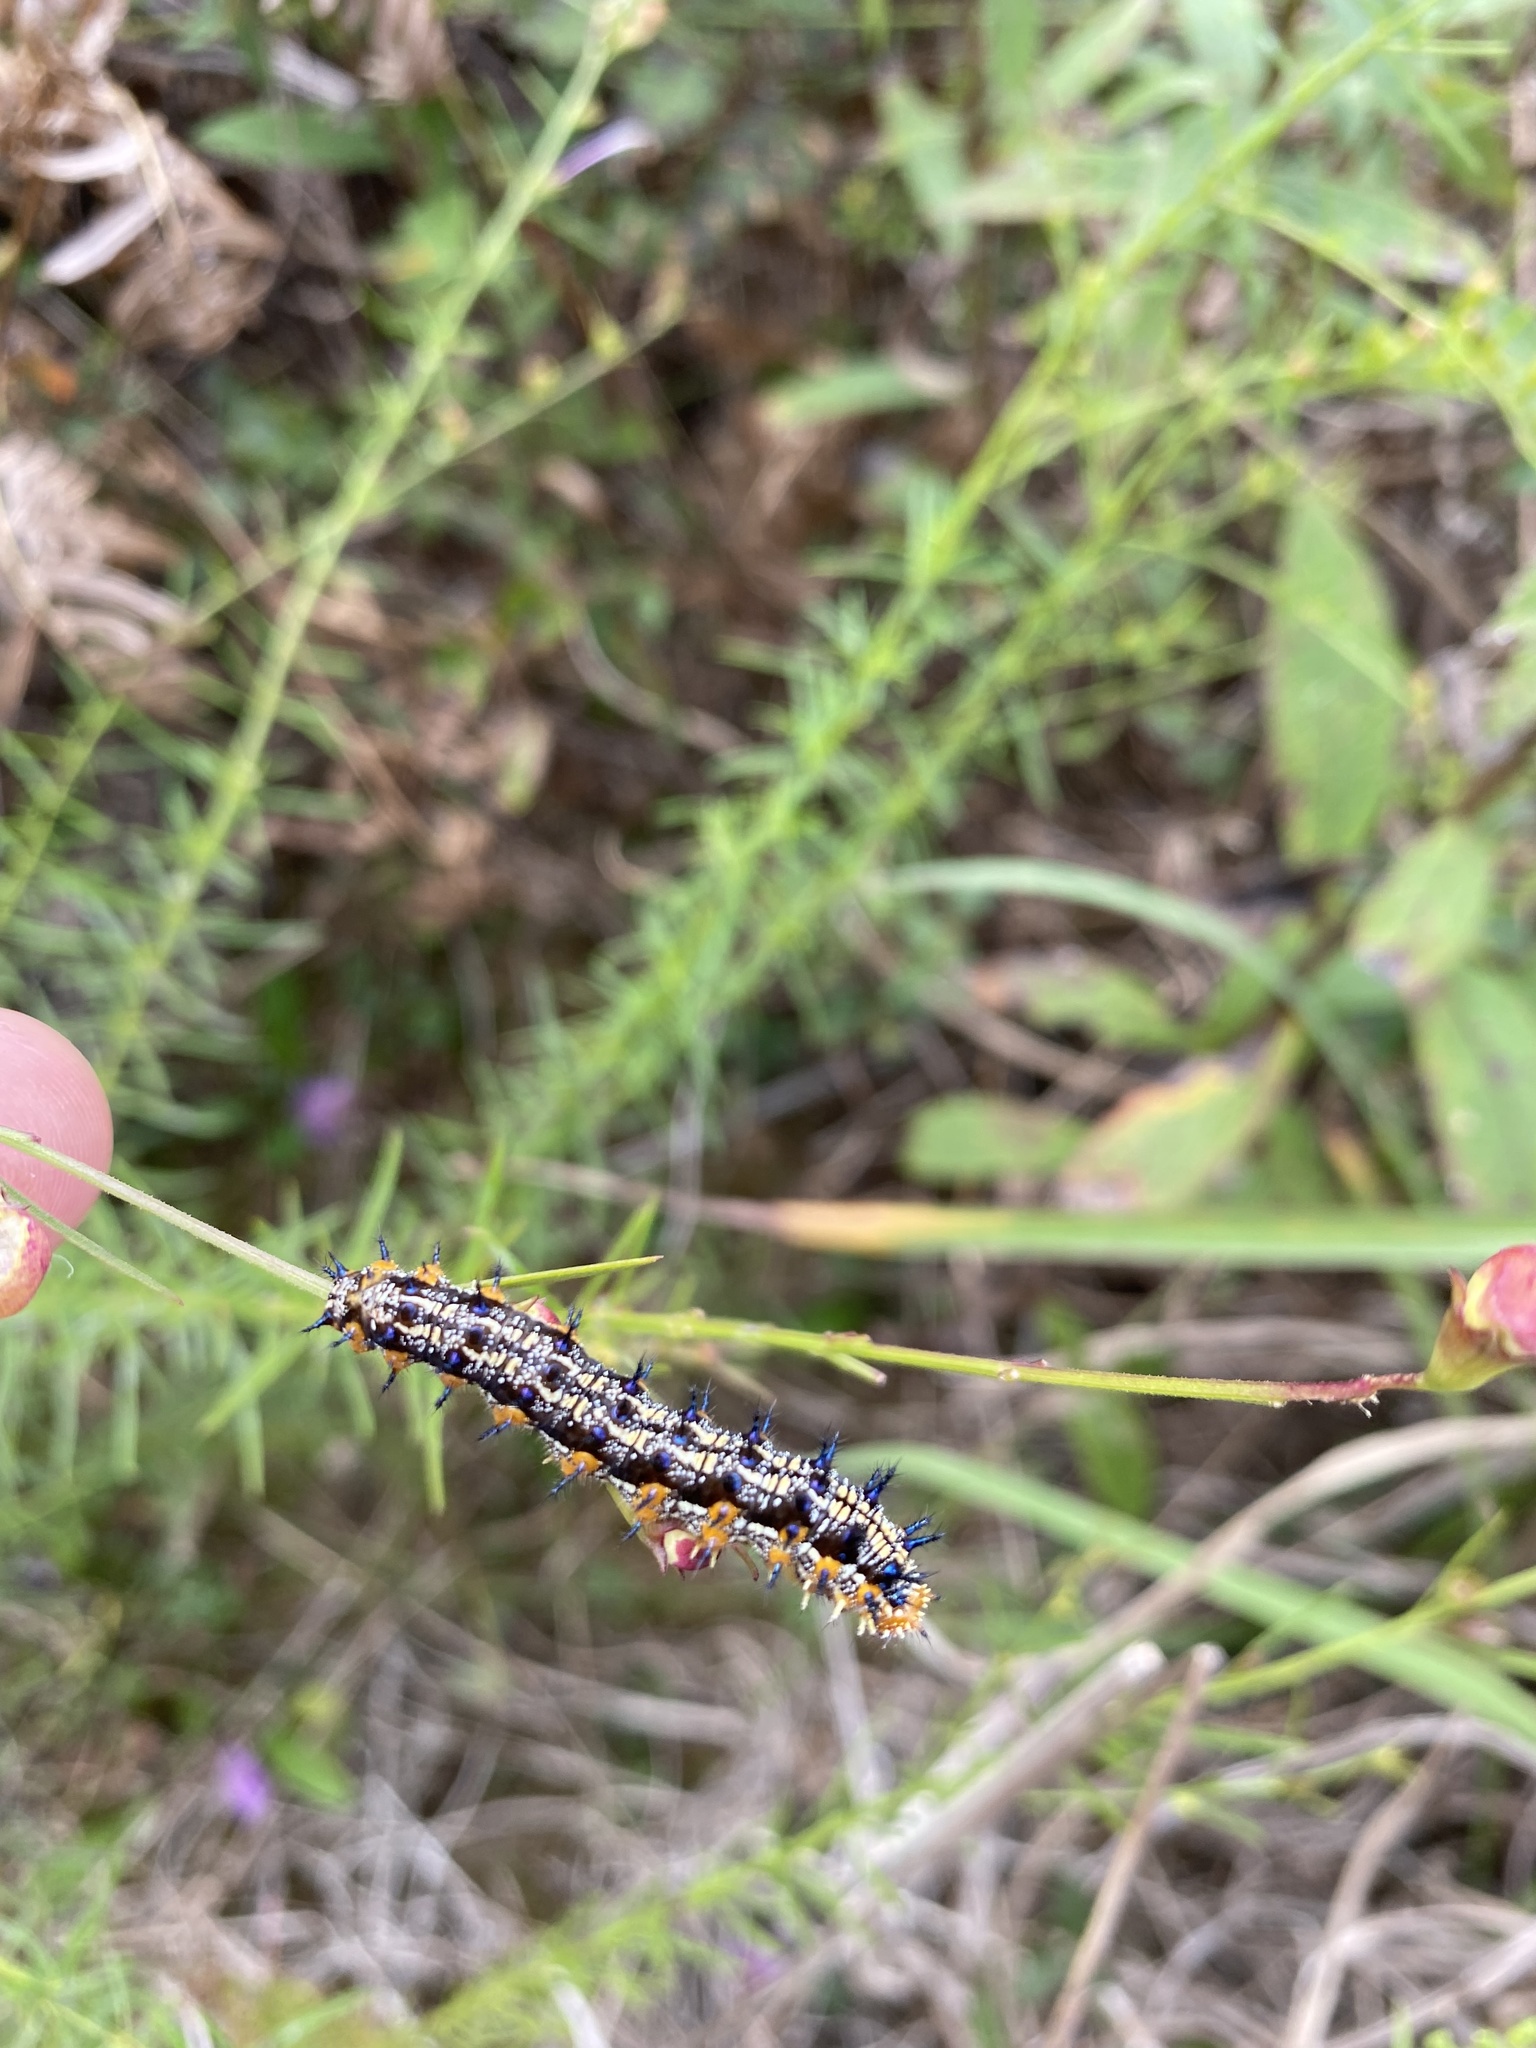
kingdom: Animalia
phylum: Arthropoda
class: Insecta
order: Lepidoptera
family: Nymphalidae
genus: Junonia
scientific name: Junonia coenia
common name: Common buckeye
